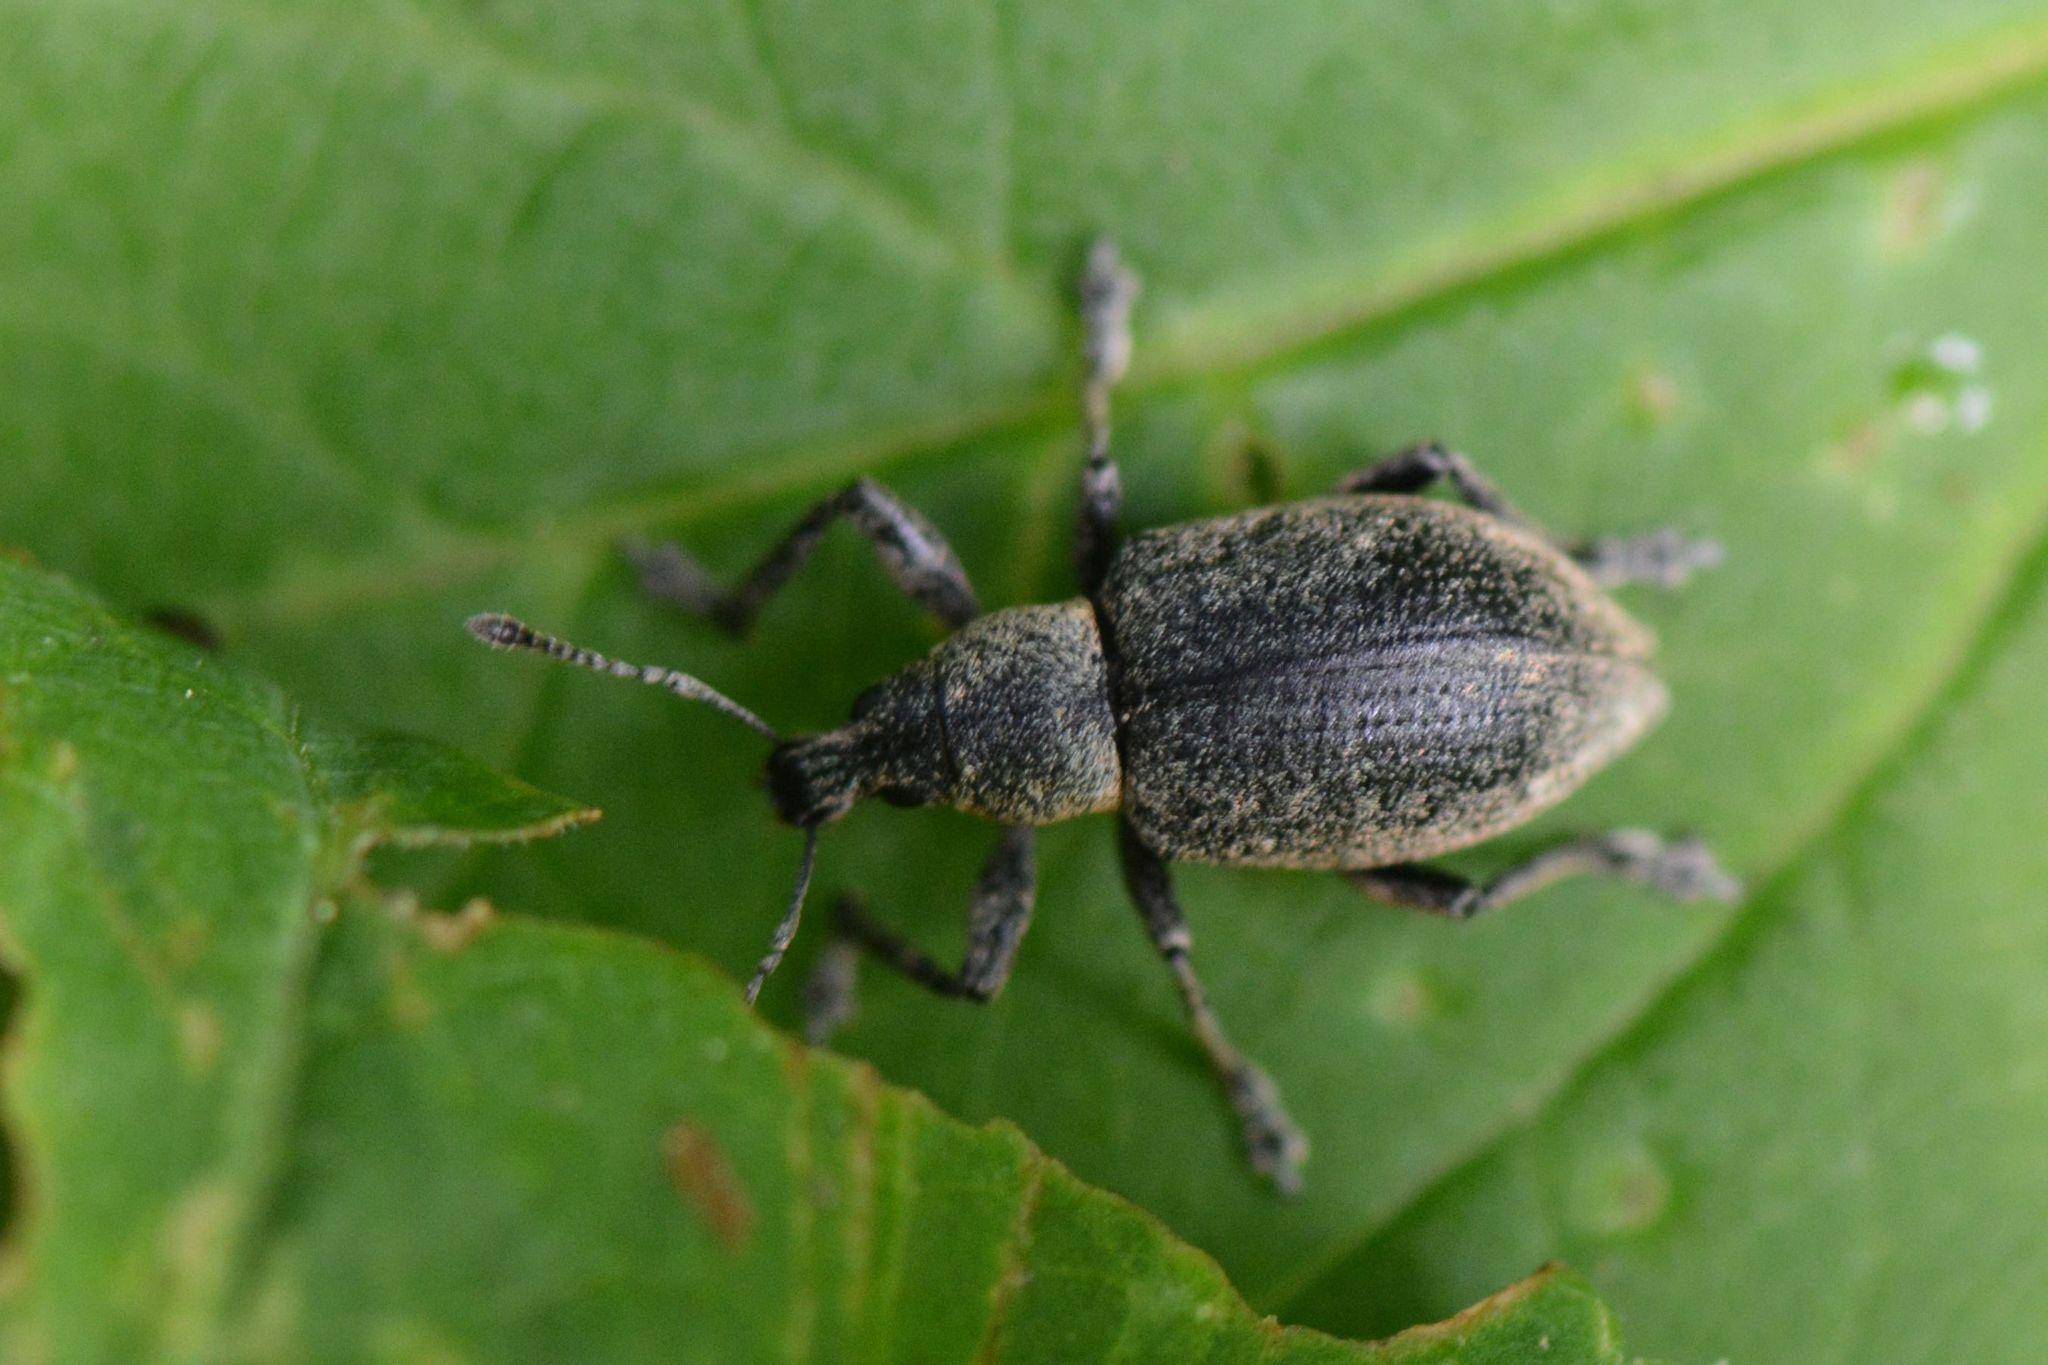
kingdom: Animalia
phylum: Arthropoda
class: Insecta
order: Coleoptera
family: Curculionidae
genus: Liophloeus
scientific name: Liophloeus tessulatus
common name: Weevil
